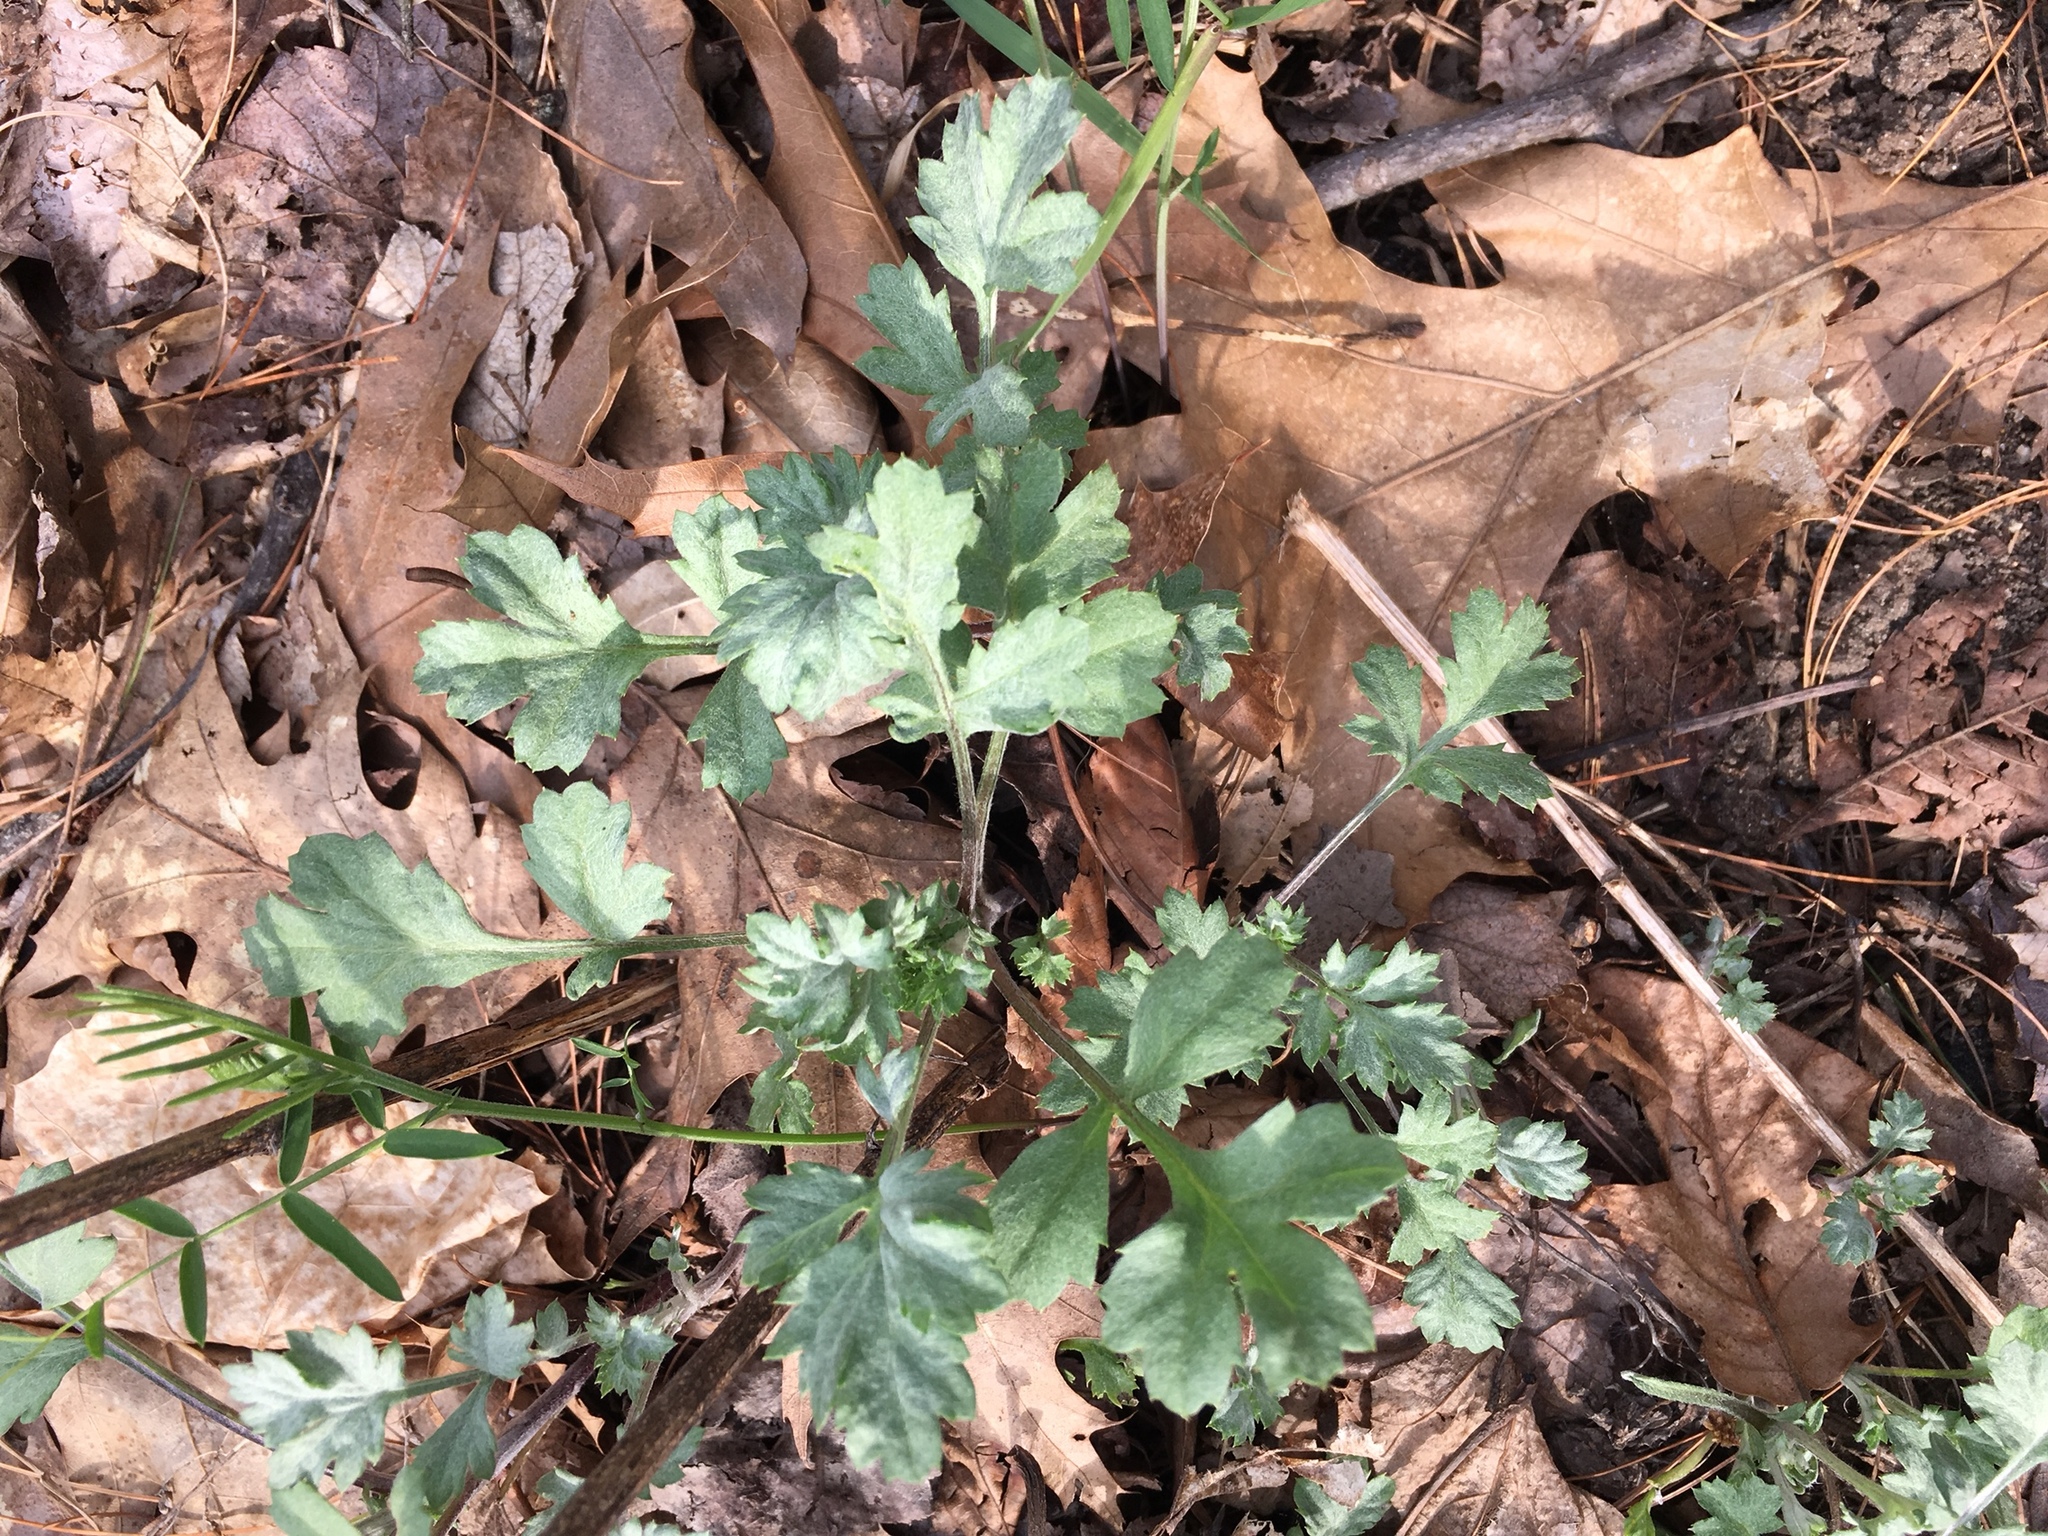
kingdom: Plantae
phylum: Tracheophyta
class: Magnoliopsida
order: Asterales
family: Asteraceae
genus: Artemisia
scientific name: Artemisia vulgaris
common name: Mugwort
